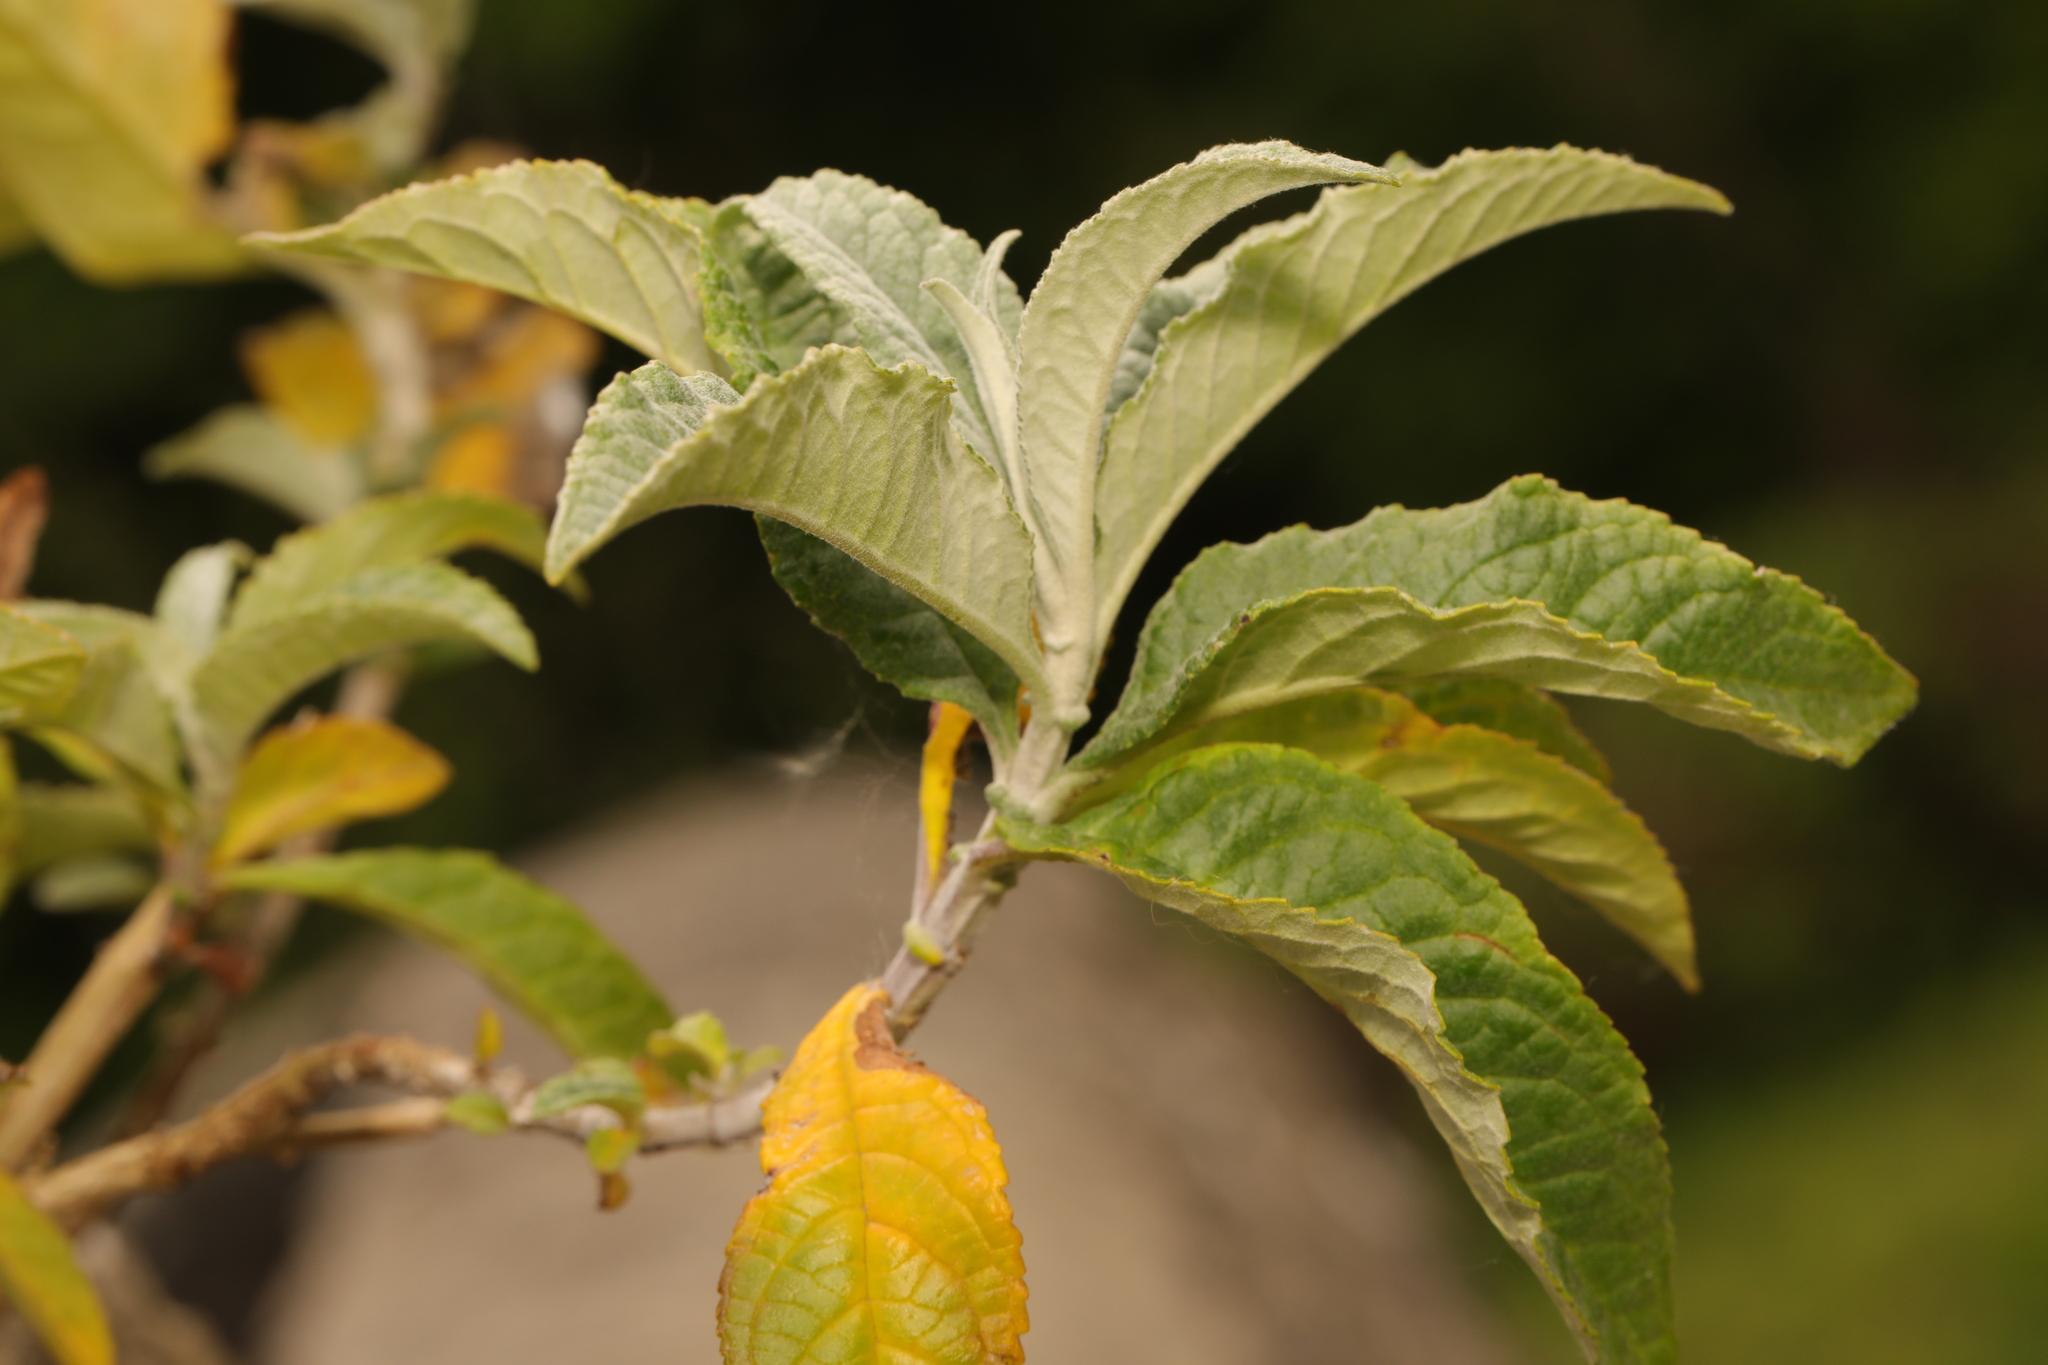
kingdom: Plantae
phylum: Tracheophyta
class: Magnoliopsida
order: Lamiales
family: Scrophulariaceae
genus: Buddleja
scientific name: Buddleja davidii
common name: Butterfly-bush
